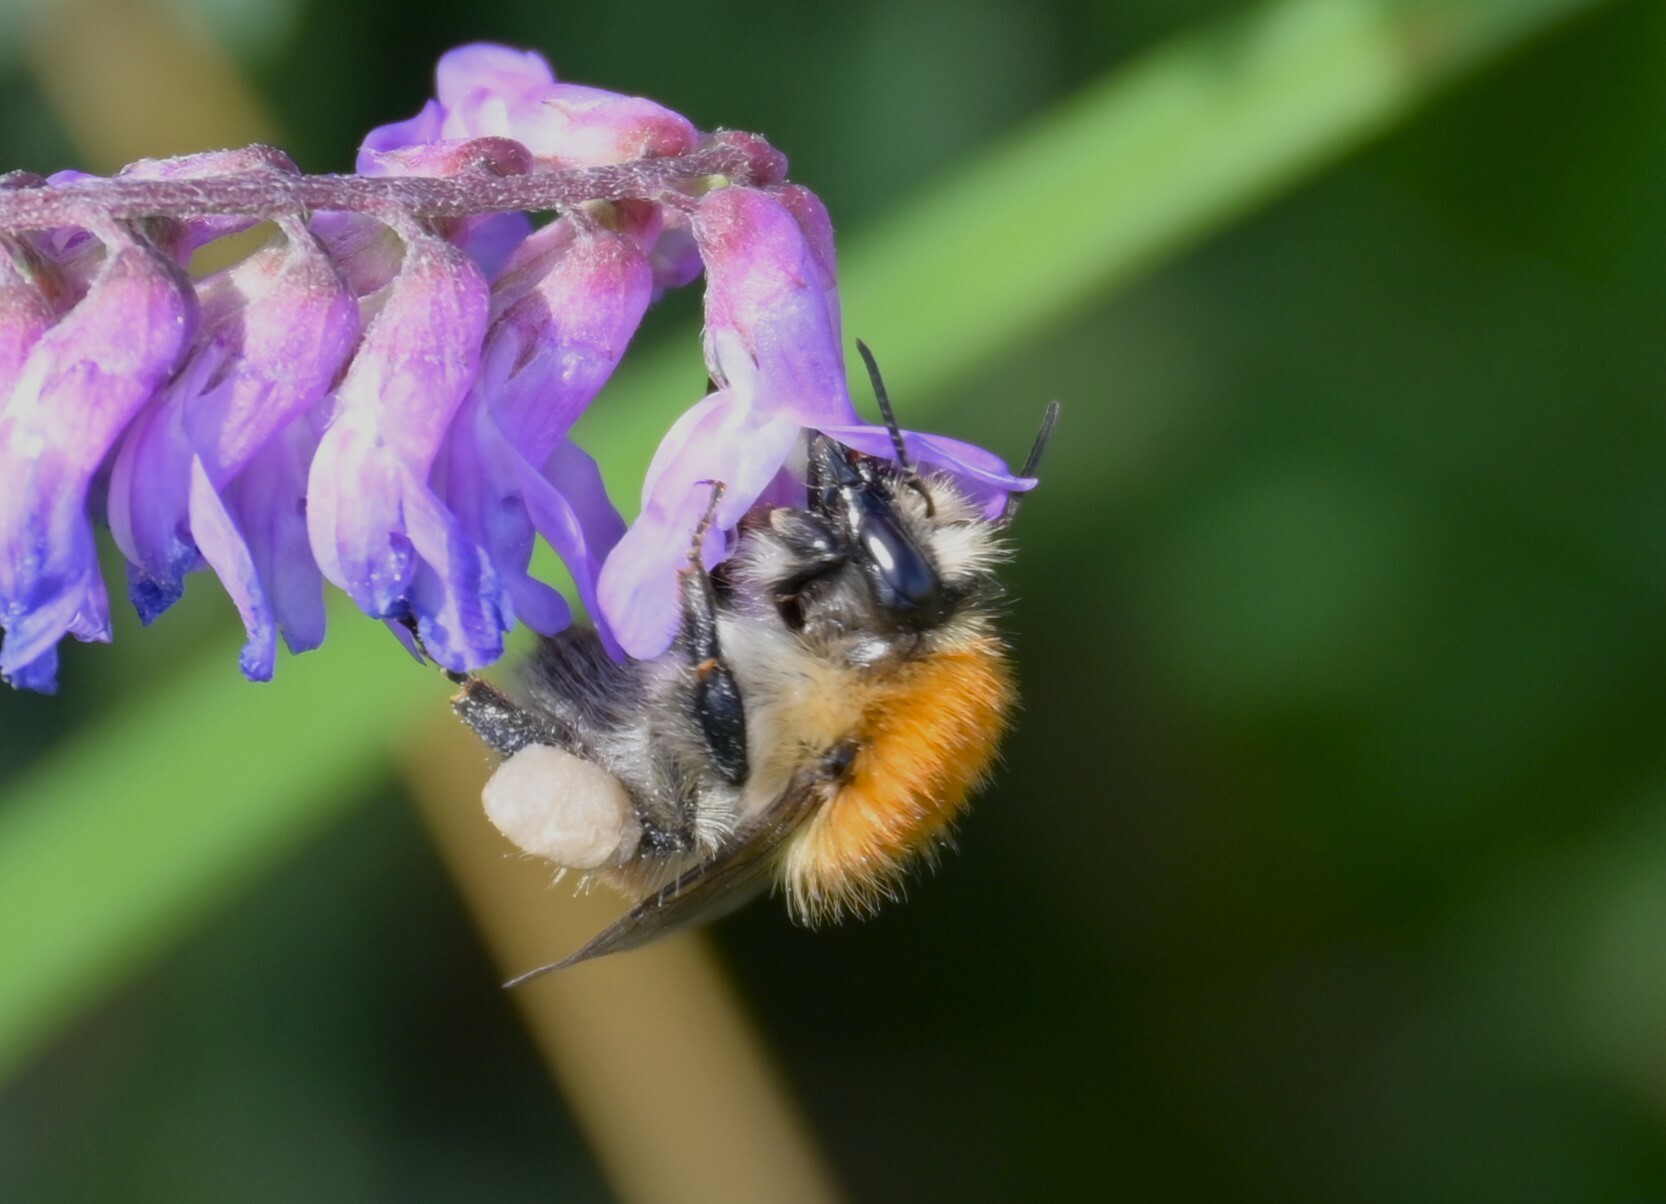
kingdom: Animalia
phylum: Arthropoda
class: Insecta
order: Hymenoptera
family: Apidae
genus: Bombus
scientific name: Bombus pascuorum
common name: Common carder bee
